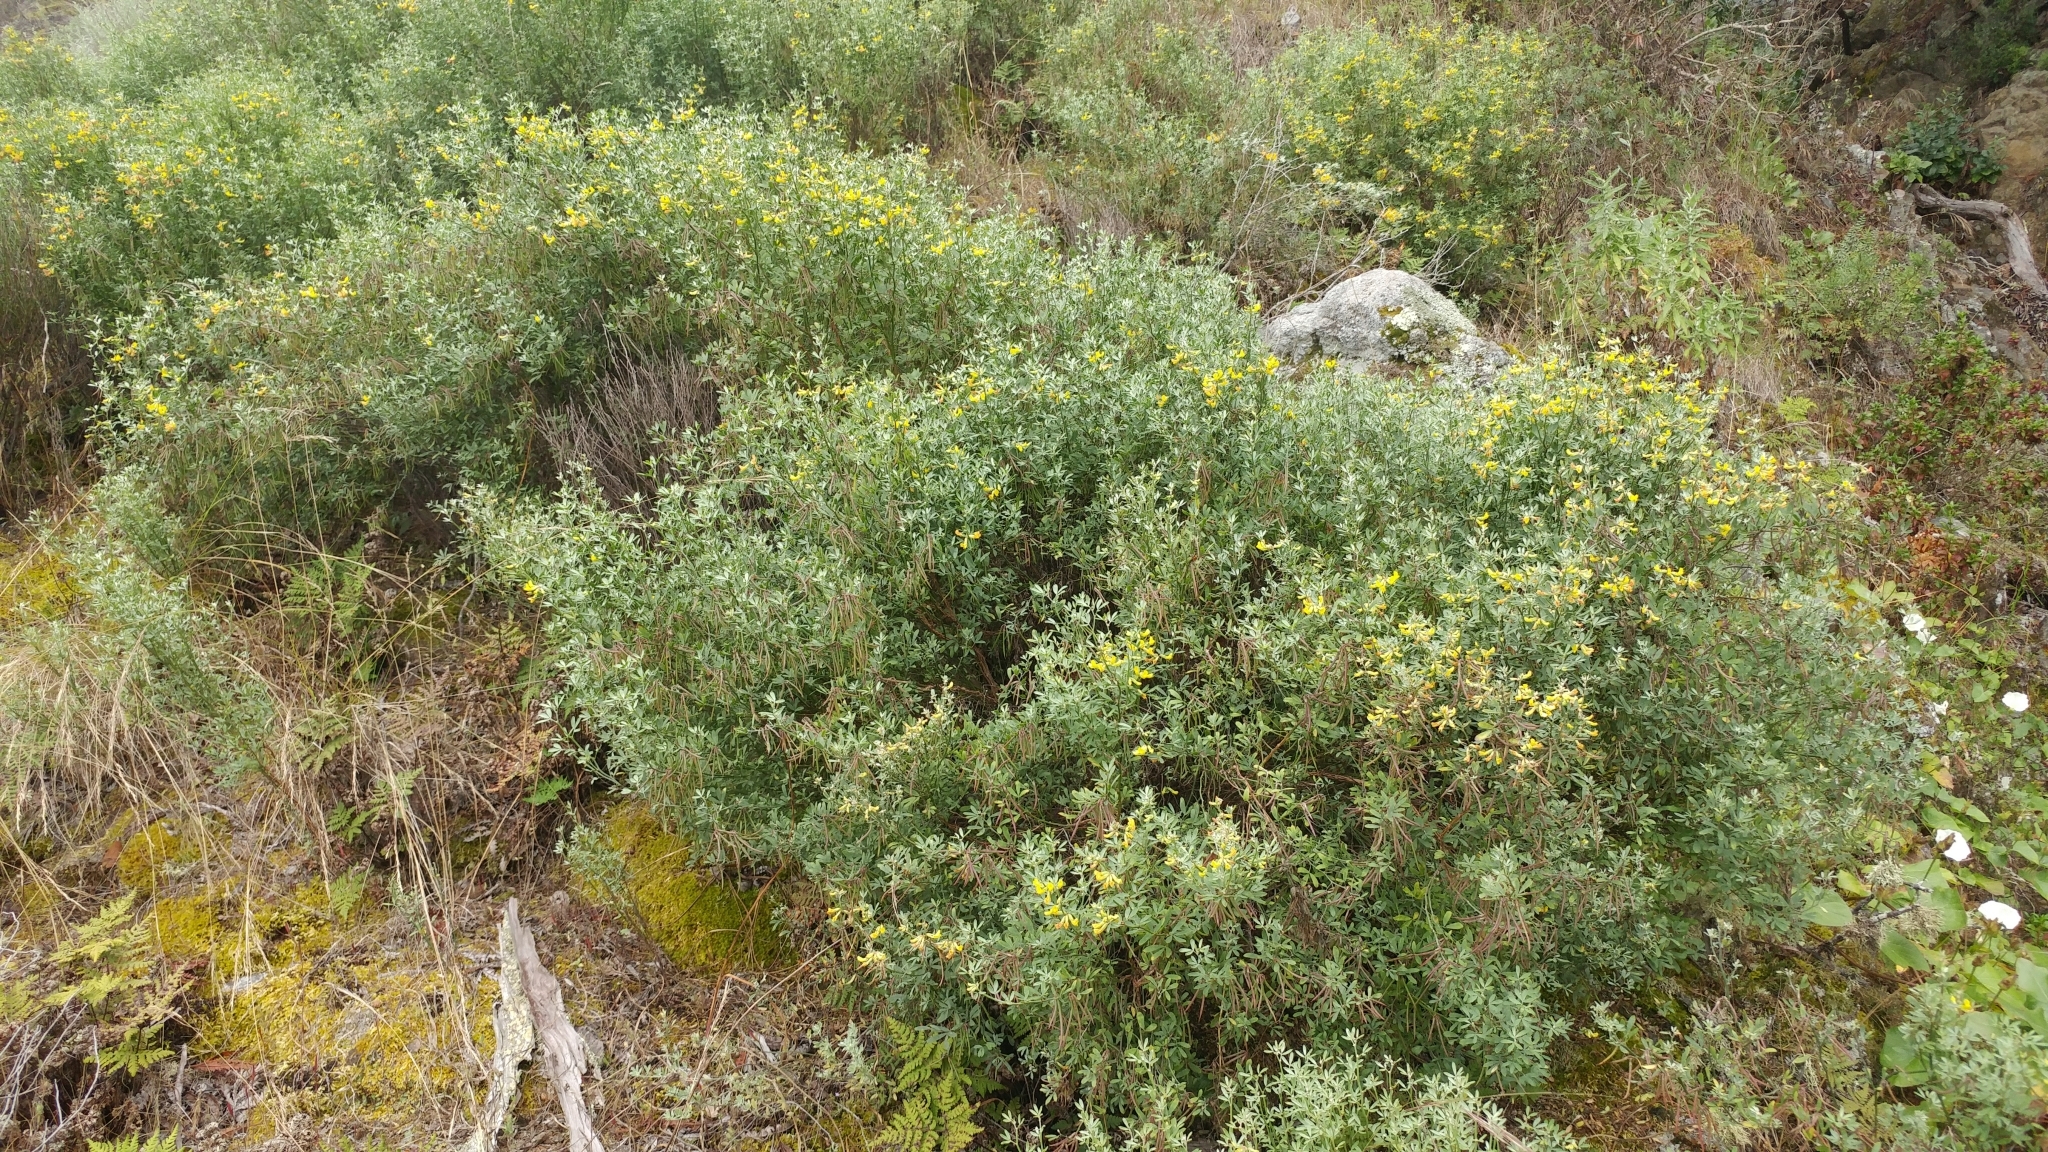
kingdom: Plantae
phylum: Tracheophyta
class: Magnoliopsida
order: Fabales
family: Fabaceae
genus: Acmispon
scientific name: Acmispon dendroideus
